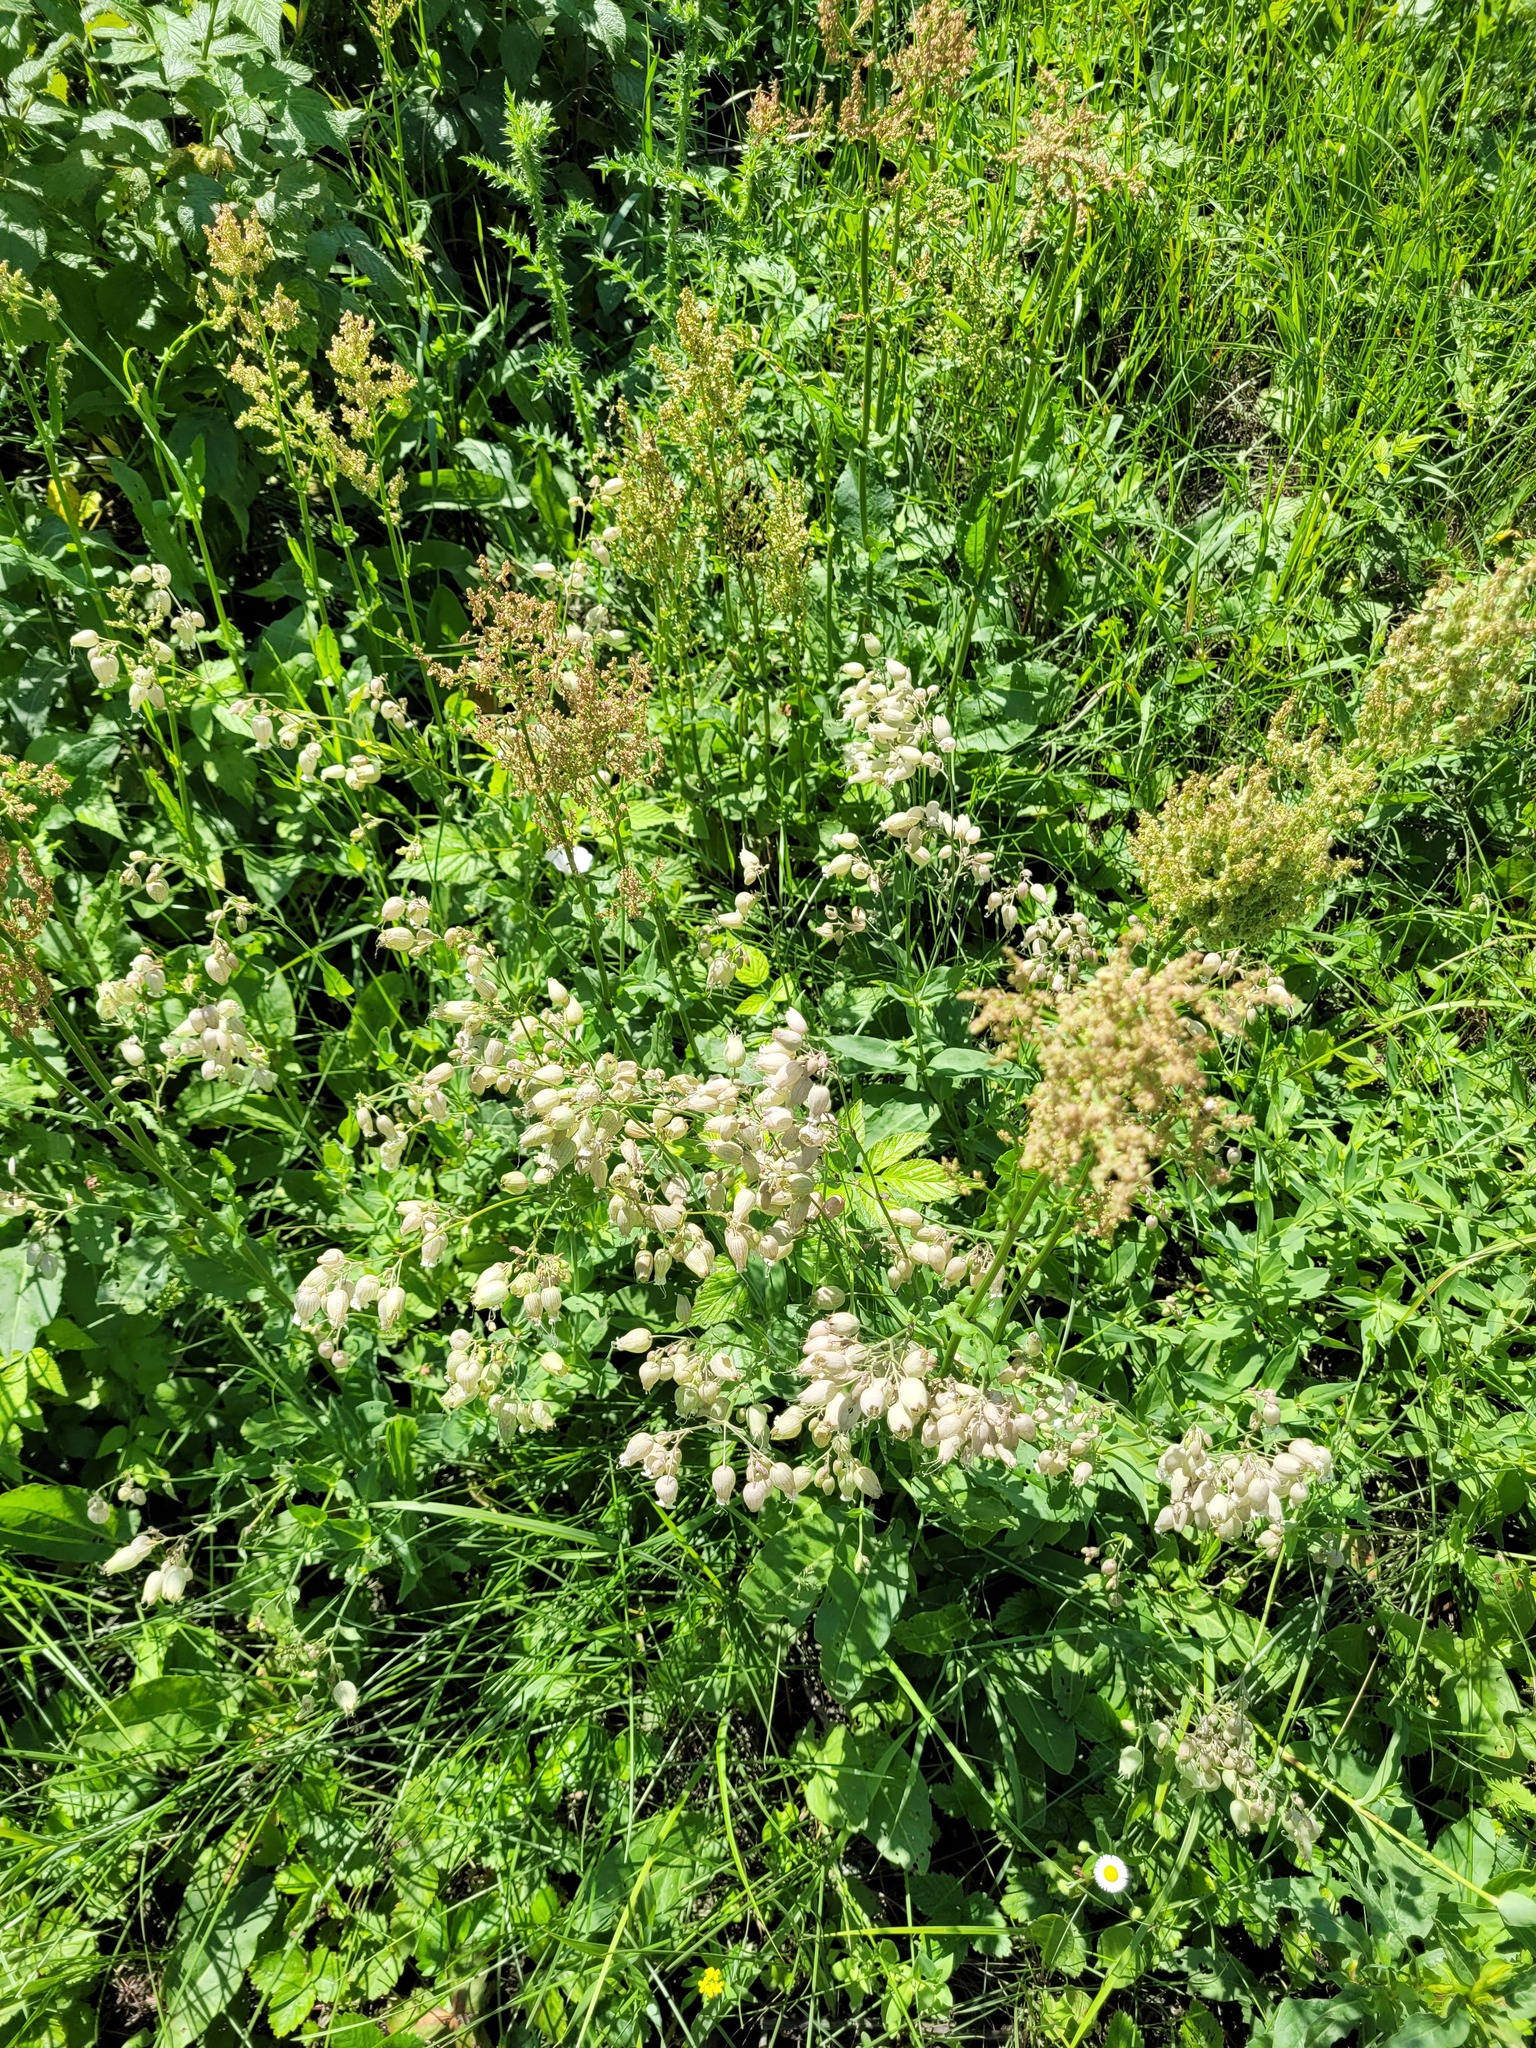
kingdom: Plantae
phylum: Tracheophyta
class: Magnoliopsida
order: Caryophyllales
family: Caryophyllaceae
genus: Silene
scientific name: Silene vulgaris
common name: Bladder campion
